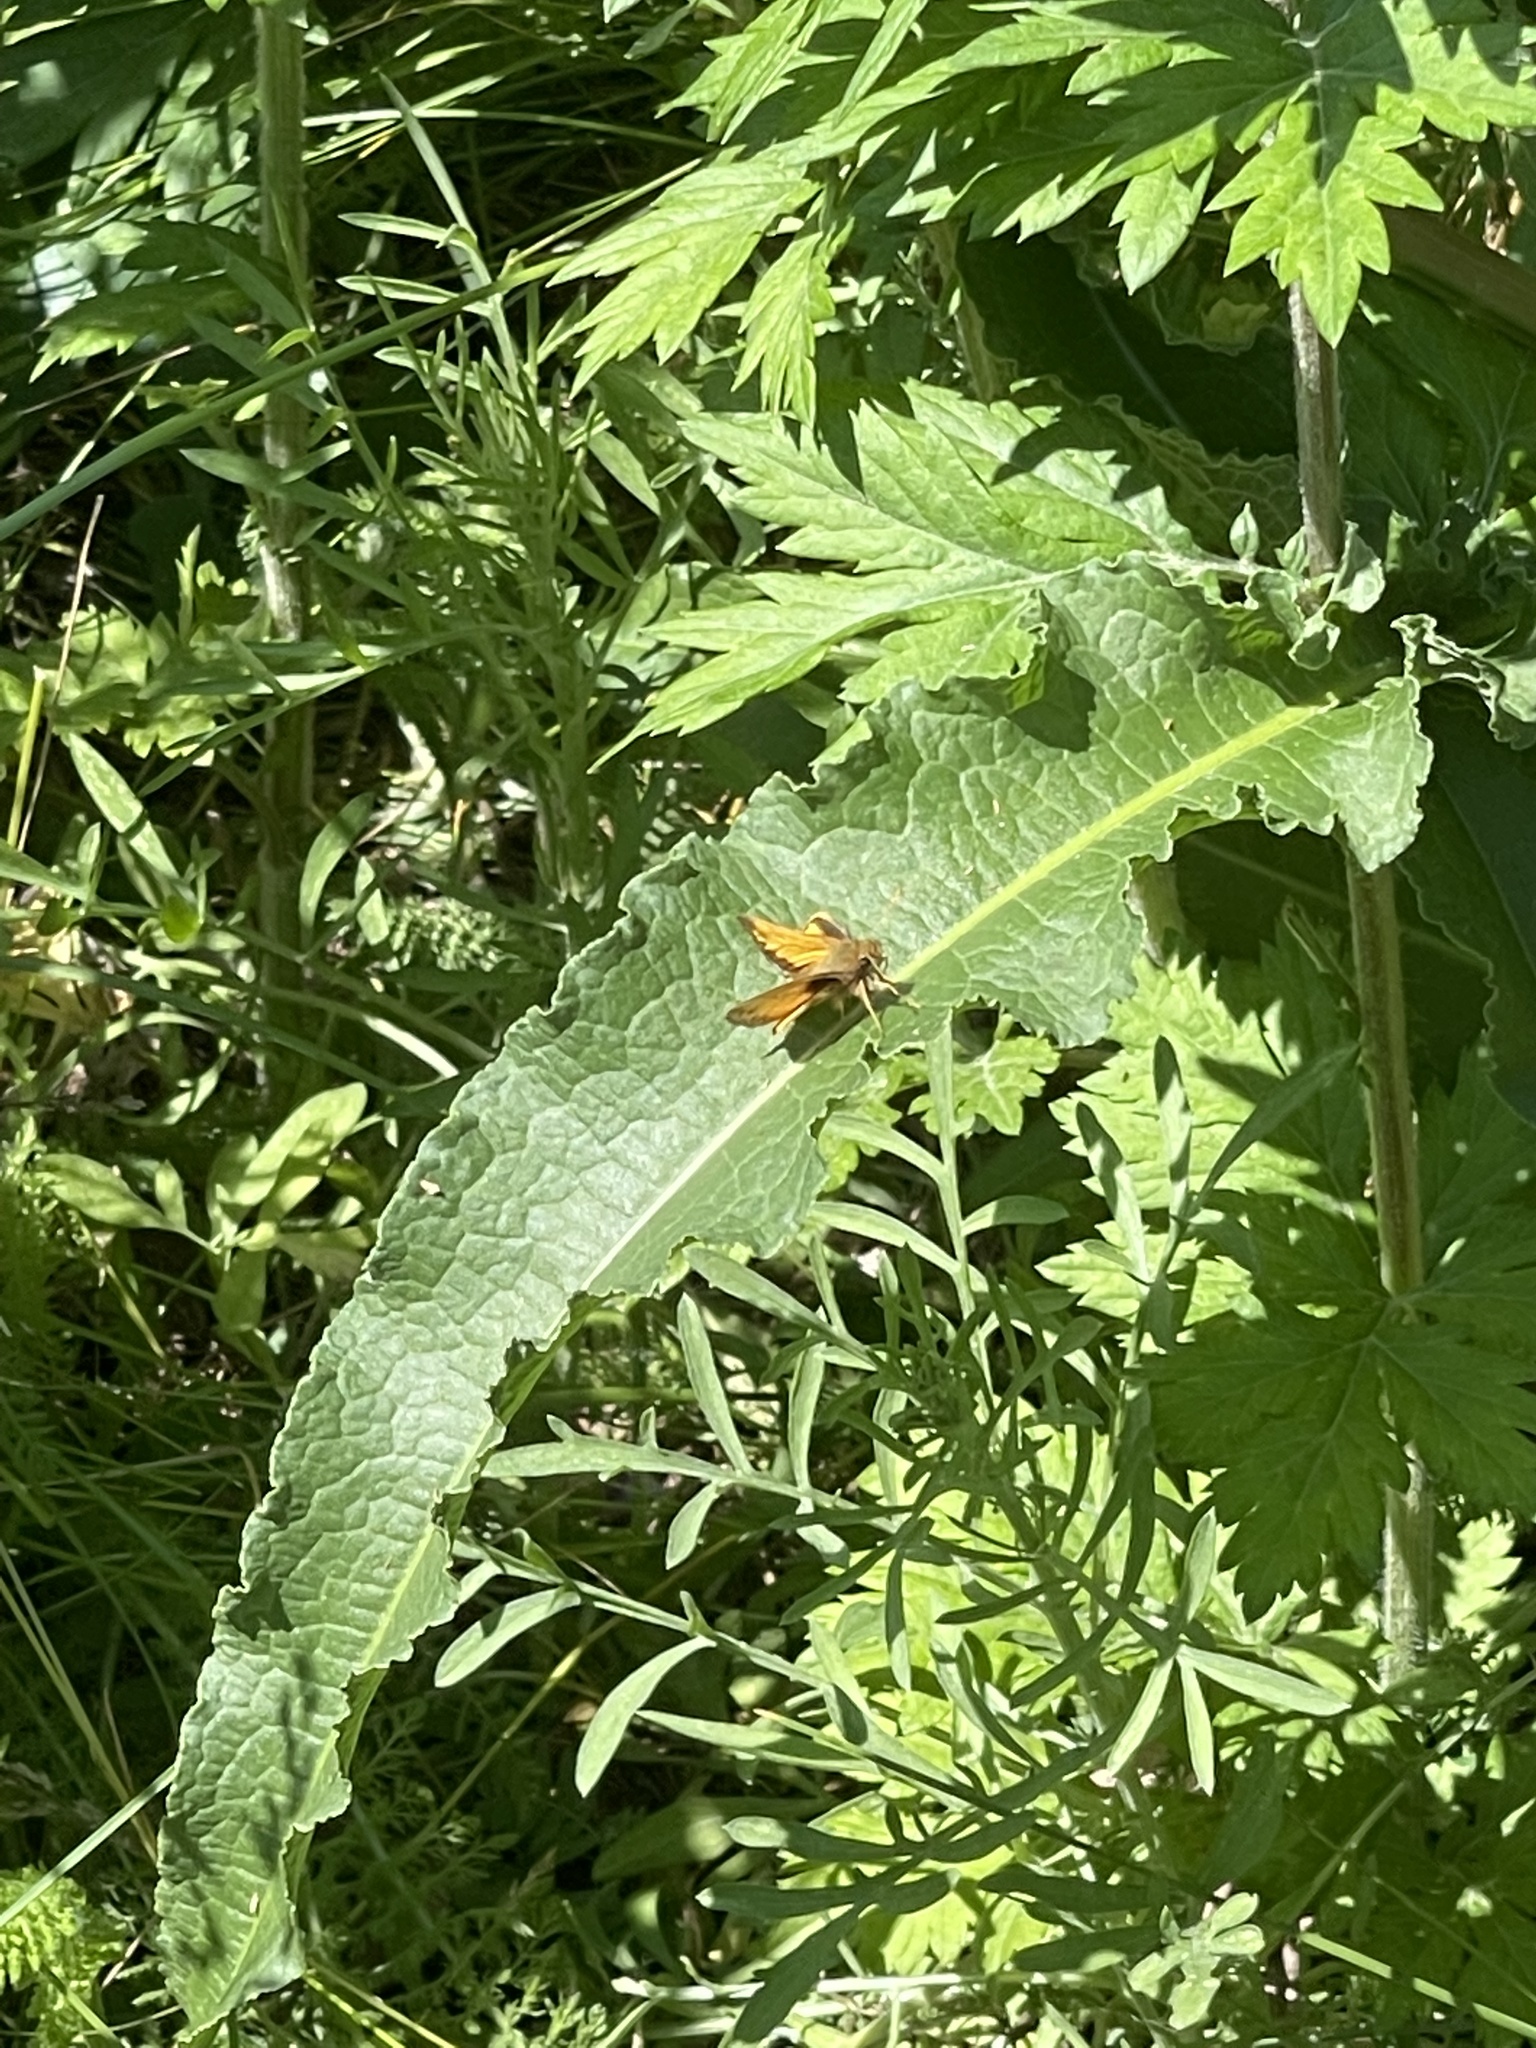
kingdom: Animalia
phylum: Arthropoda
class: Insecta
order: Lepidoptera
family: Hesperiidae
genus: Lon
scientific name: Lon zabulon
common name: Zabulon skipper
